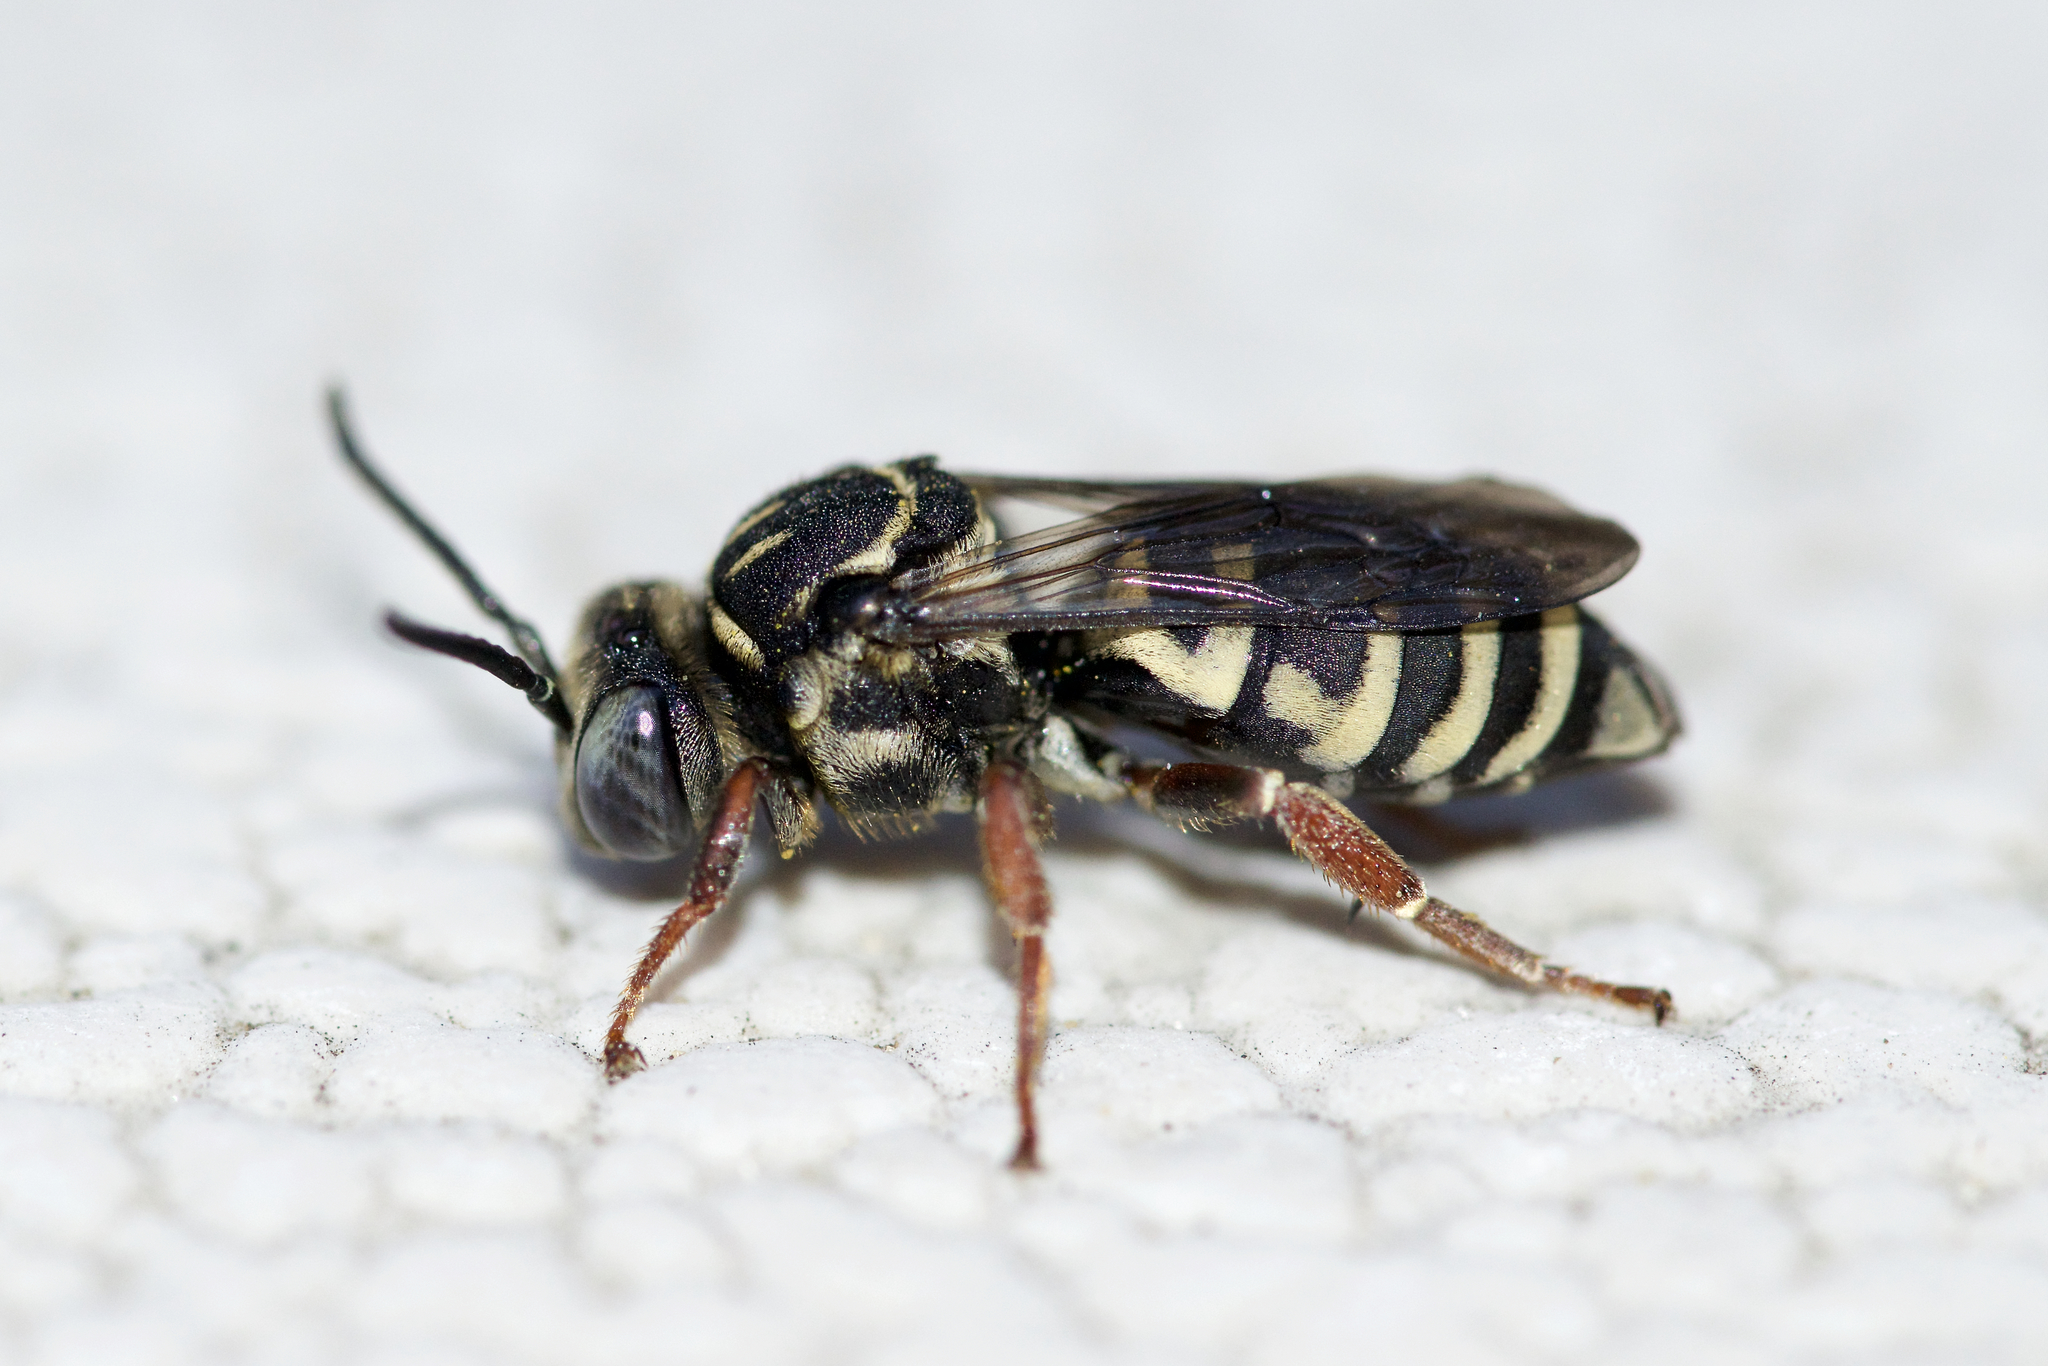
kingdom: Animalia
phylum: Arthropoda
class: Insecta
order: Hymenoptera
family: Apidae
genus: Triepeolus
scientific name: Triepeolus pectoralis
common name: Goldenrod longhorn-cuckoo bee
